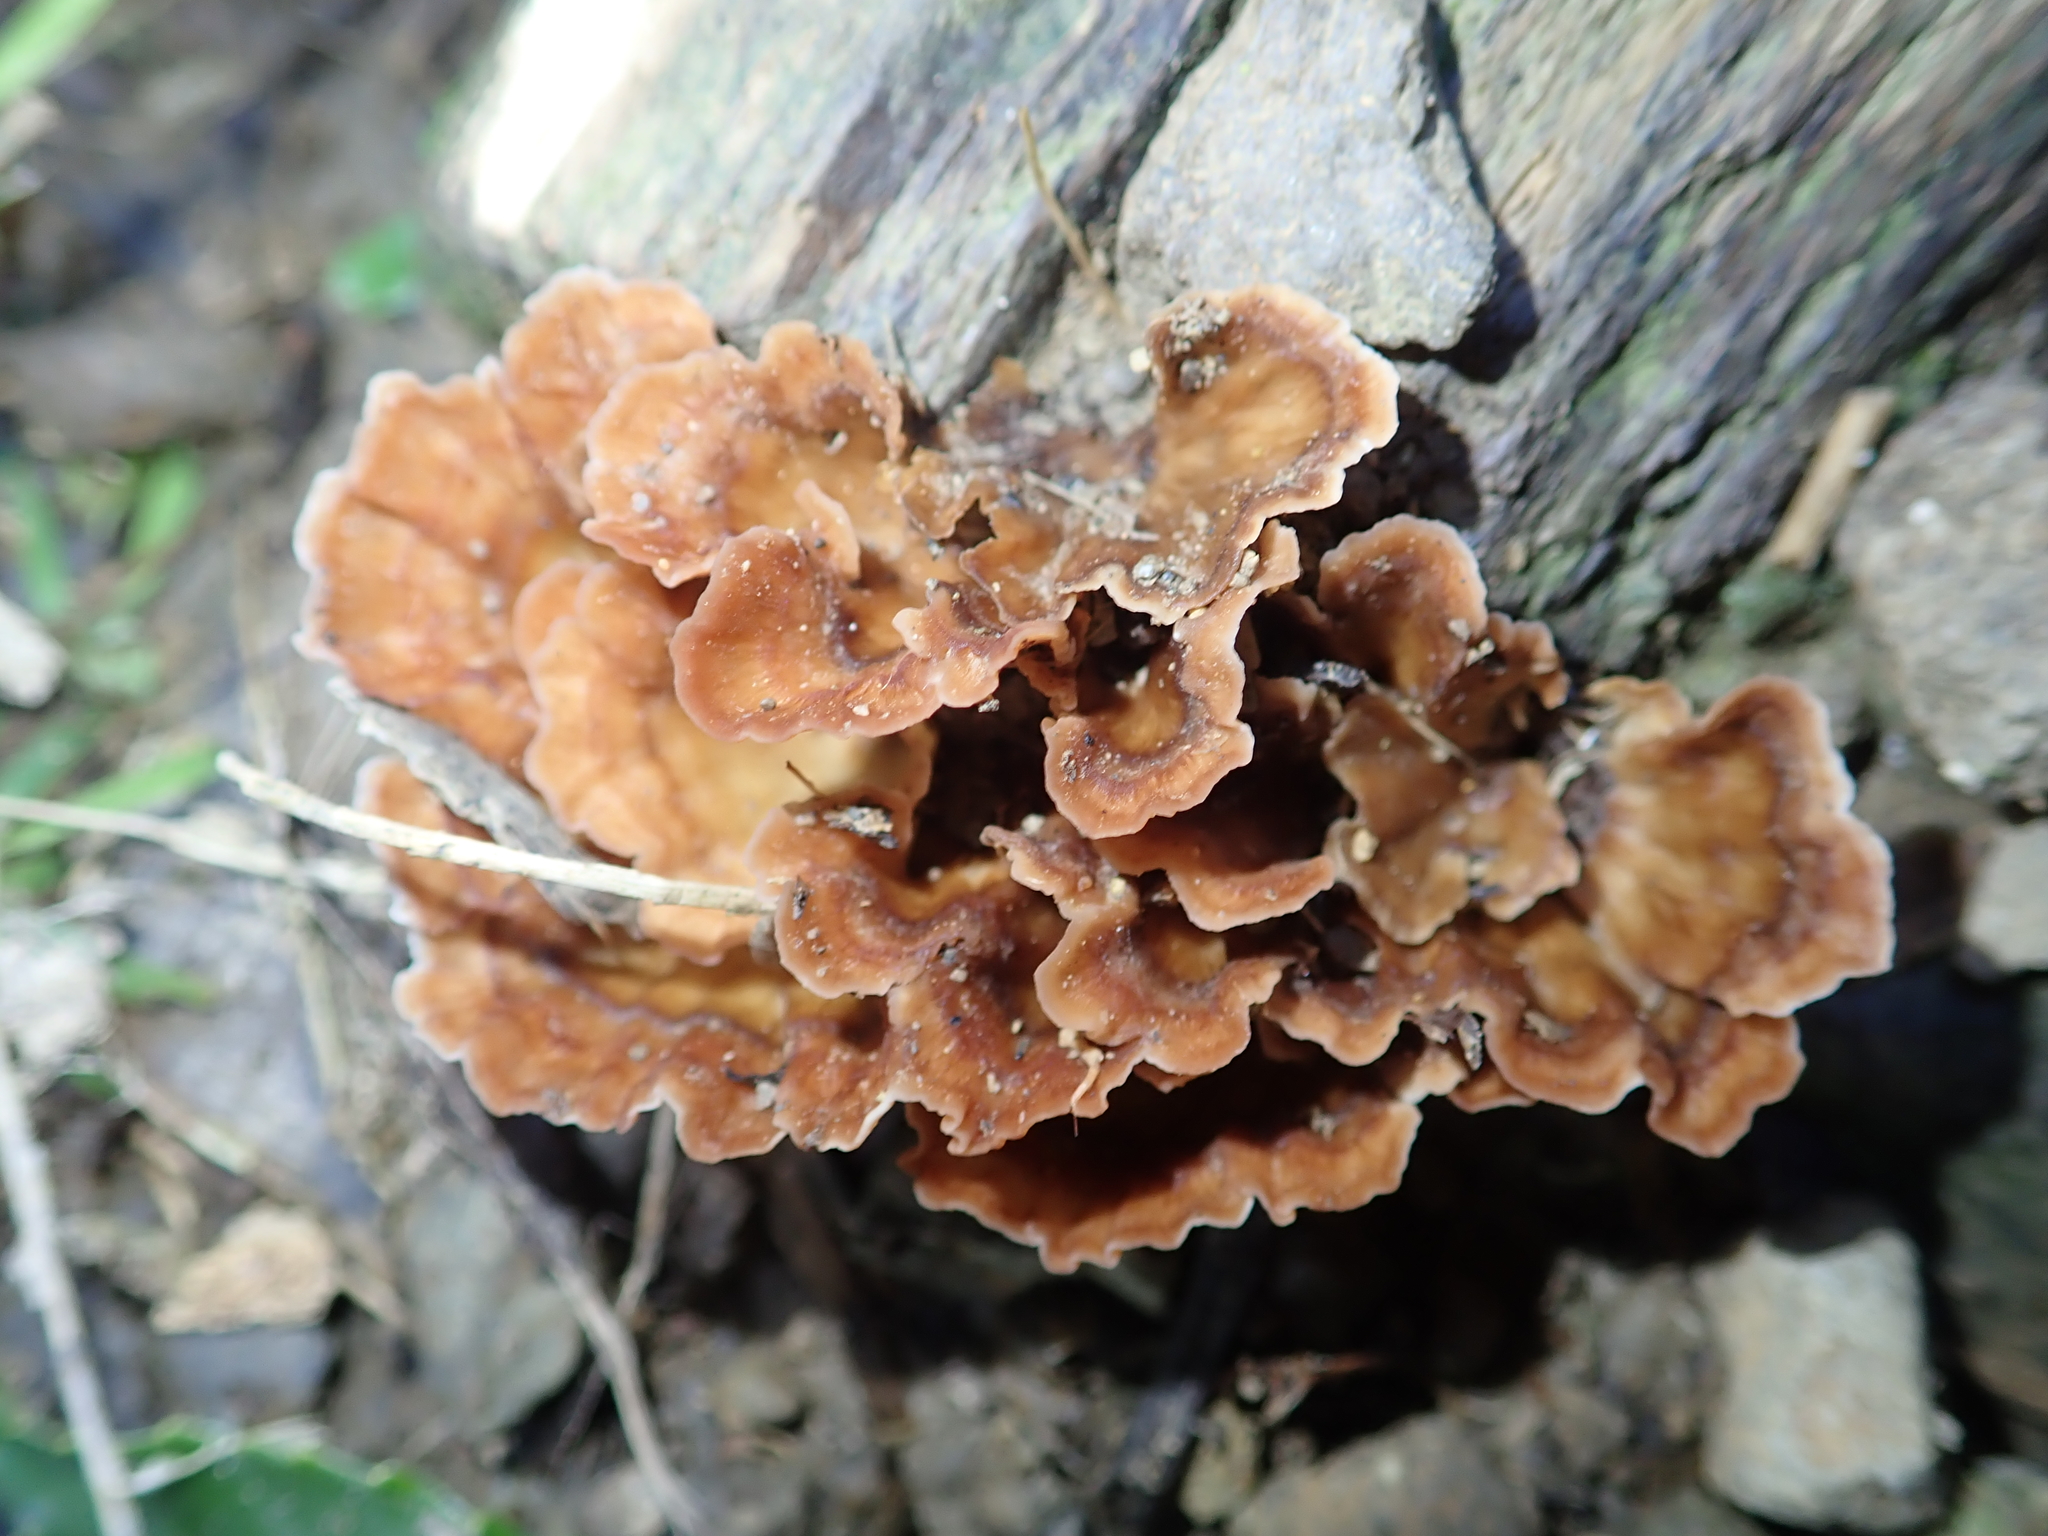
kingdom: Fungi
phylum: Basidiomycota
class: Agaricomycetes
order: Polyporales
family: Podoscyphaceae
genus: Podoscypha
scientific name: Podoscypha petalodes
